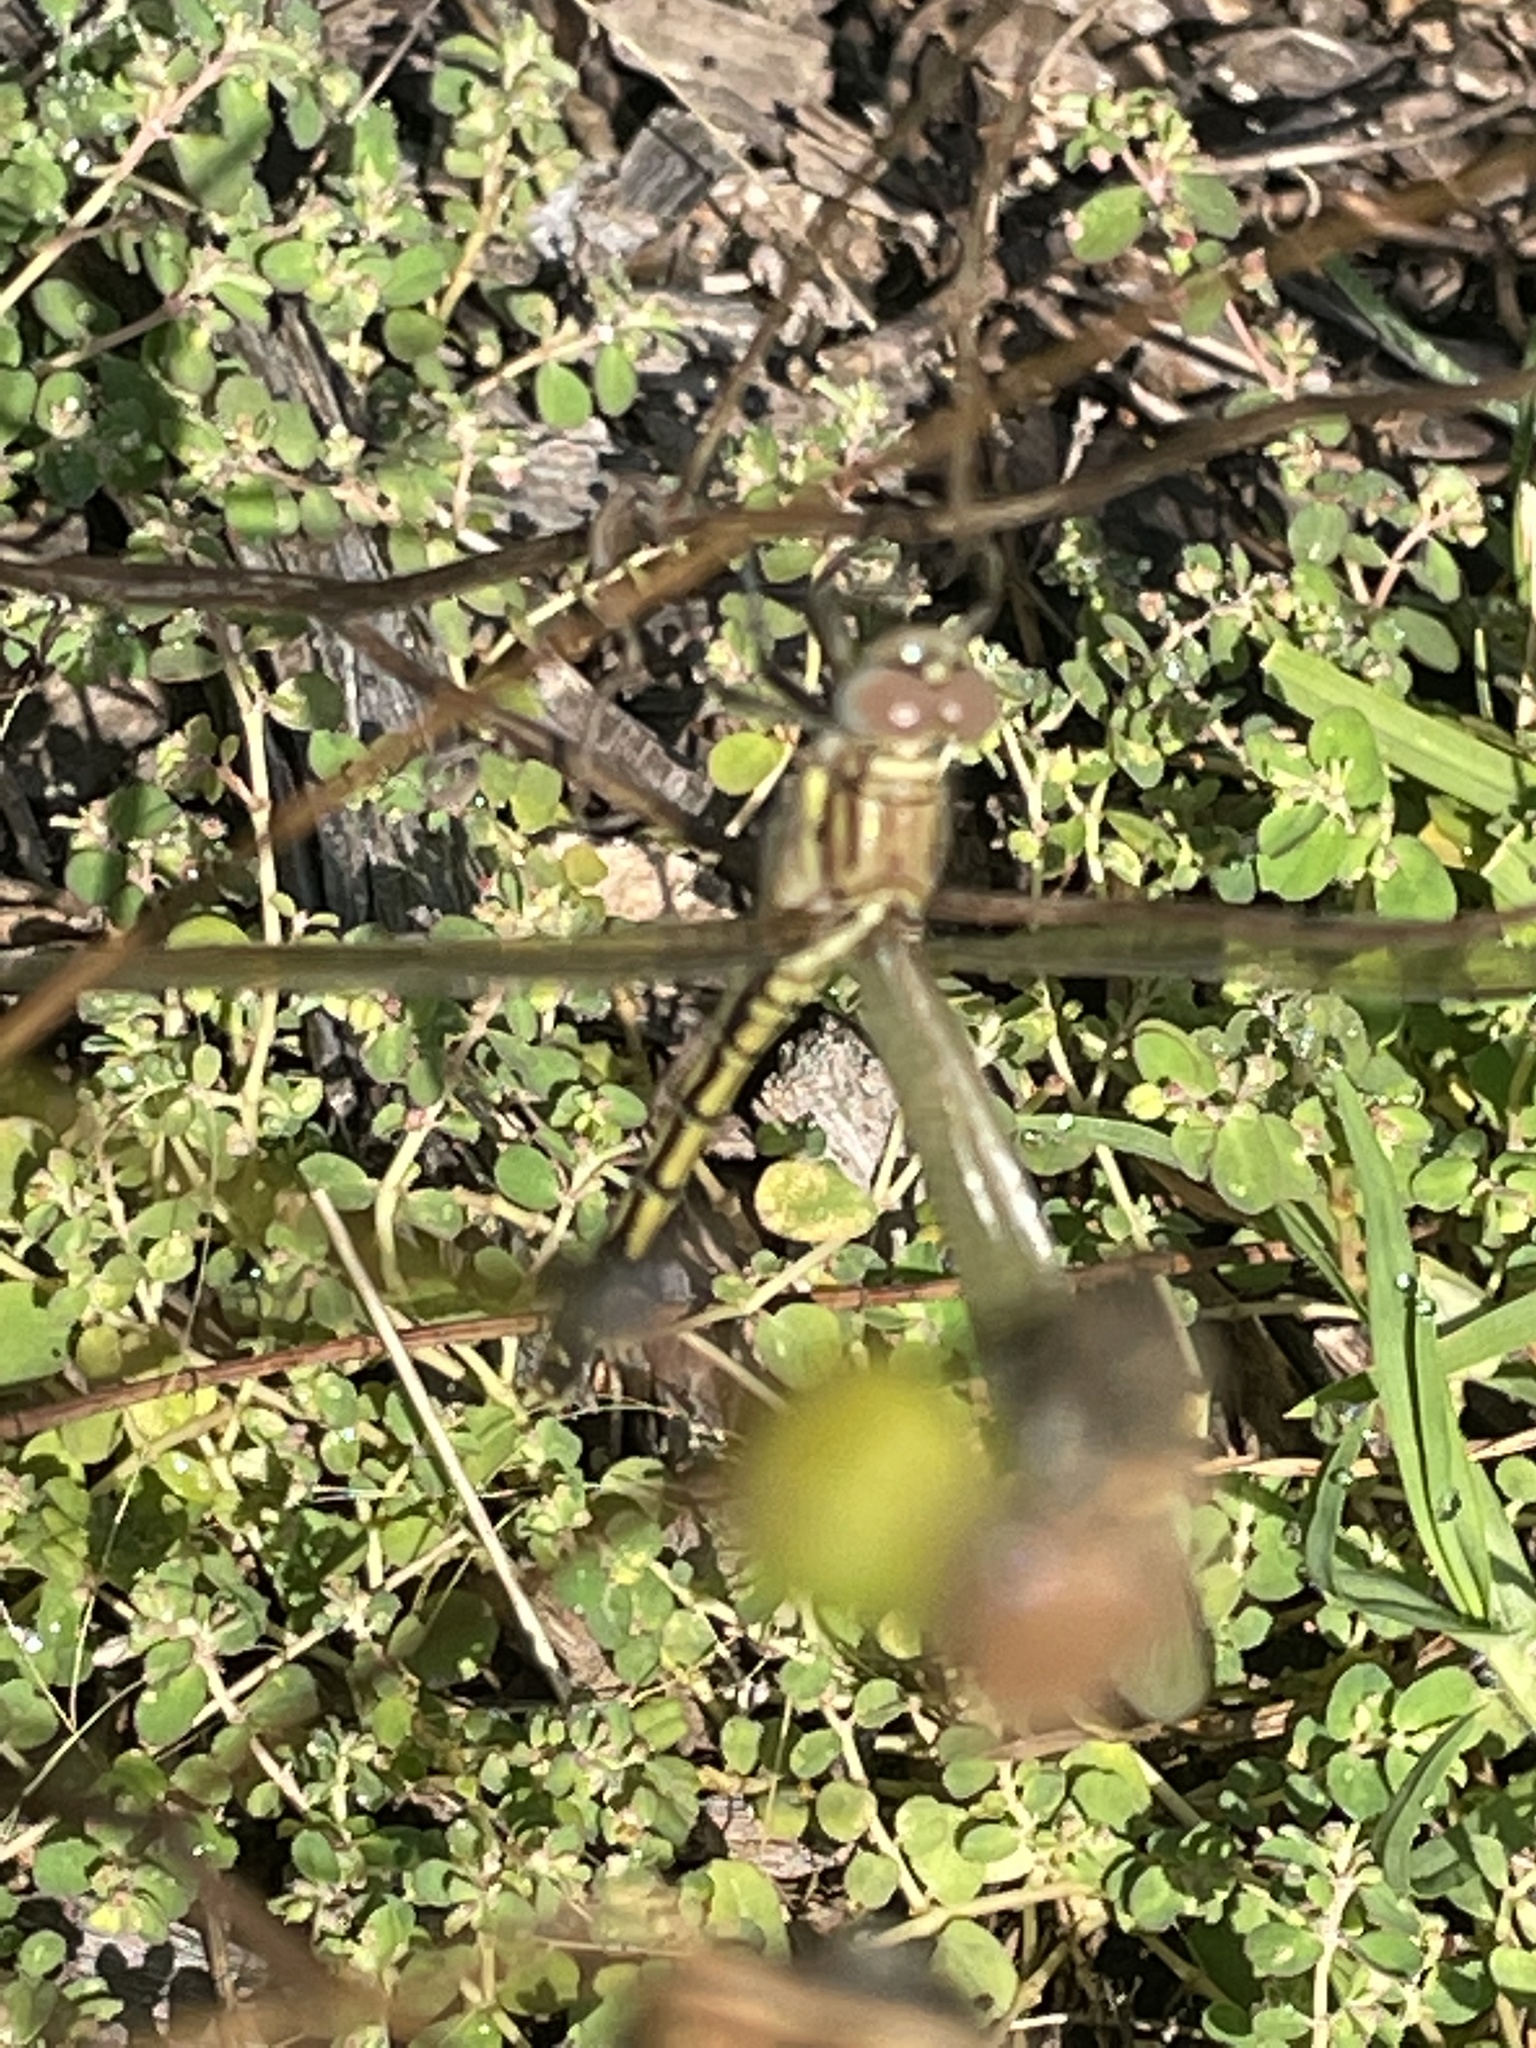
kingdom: Animalia
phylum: Arthropoda
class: Insecta
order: Odonata
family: Libellulidae
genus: Orthetrum
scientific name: Orthetrum caledonicum
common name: Blue skimmer
